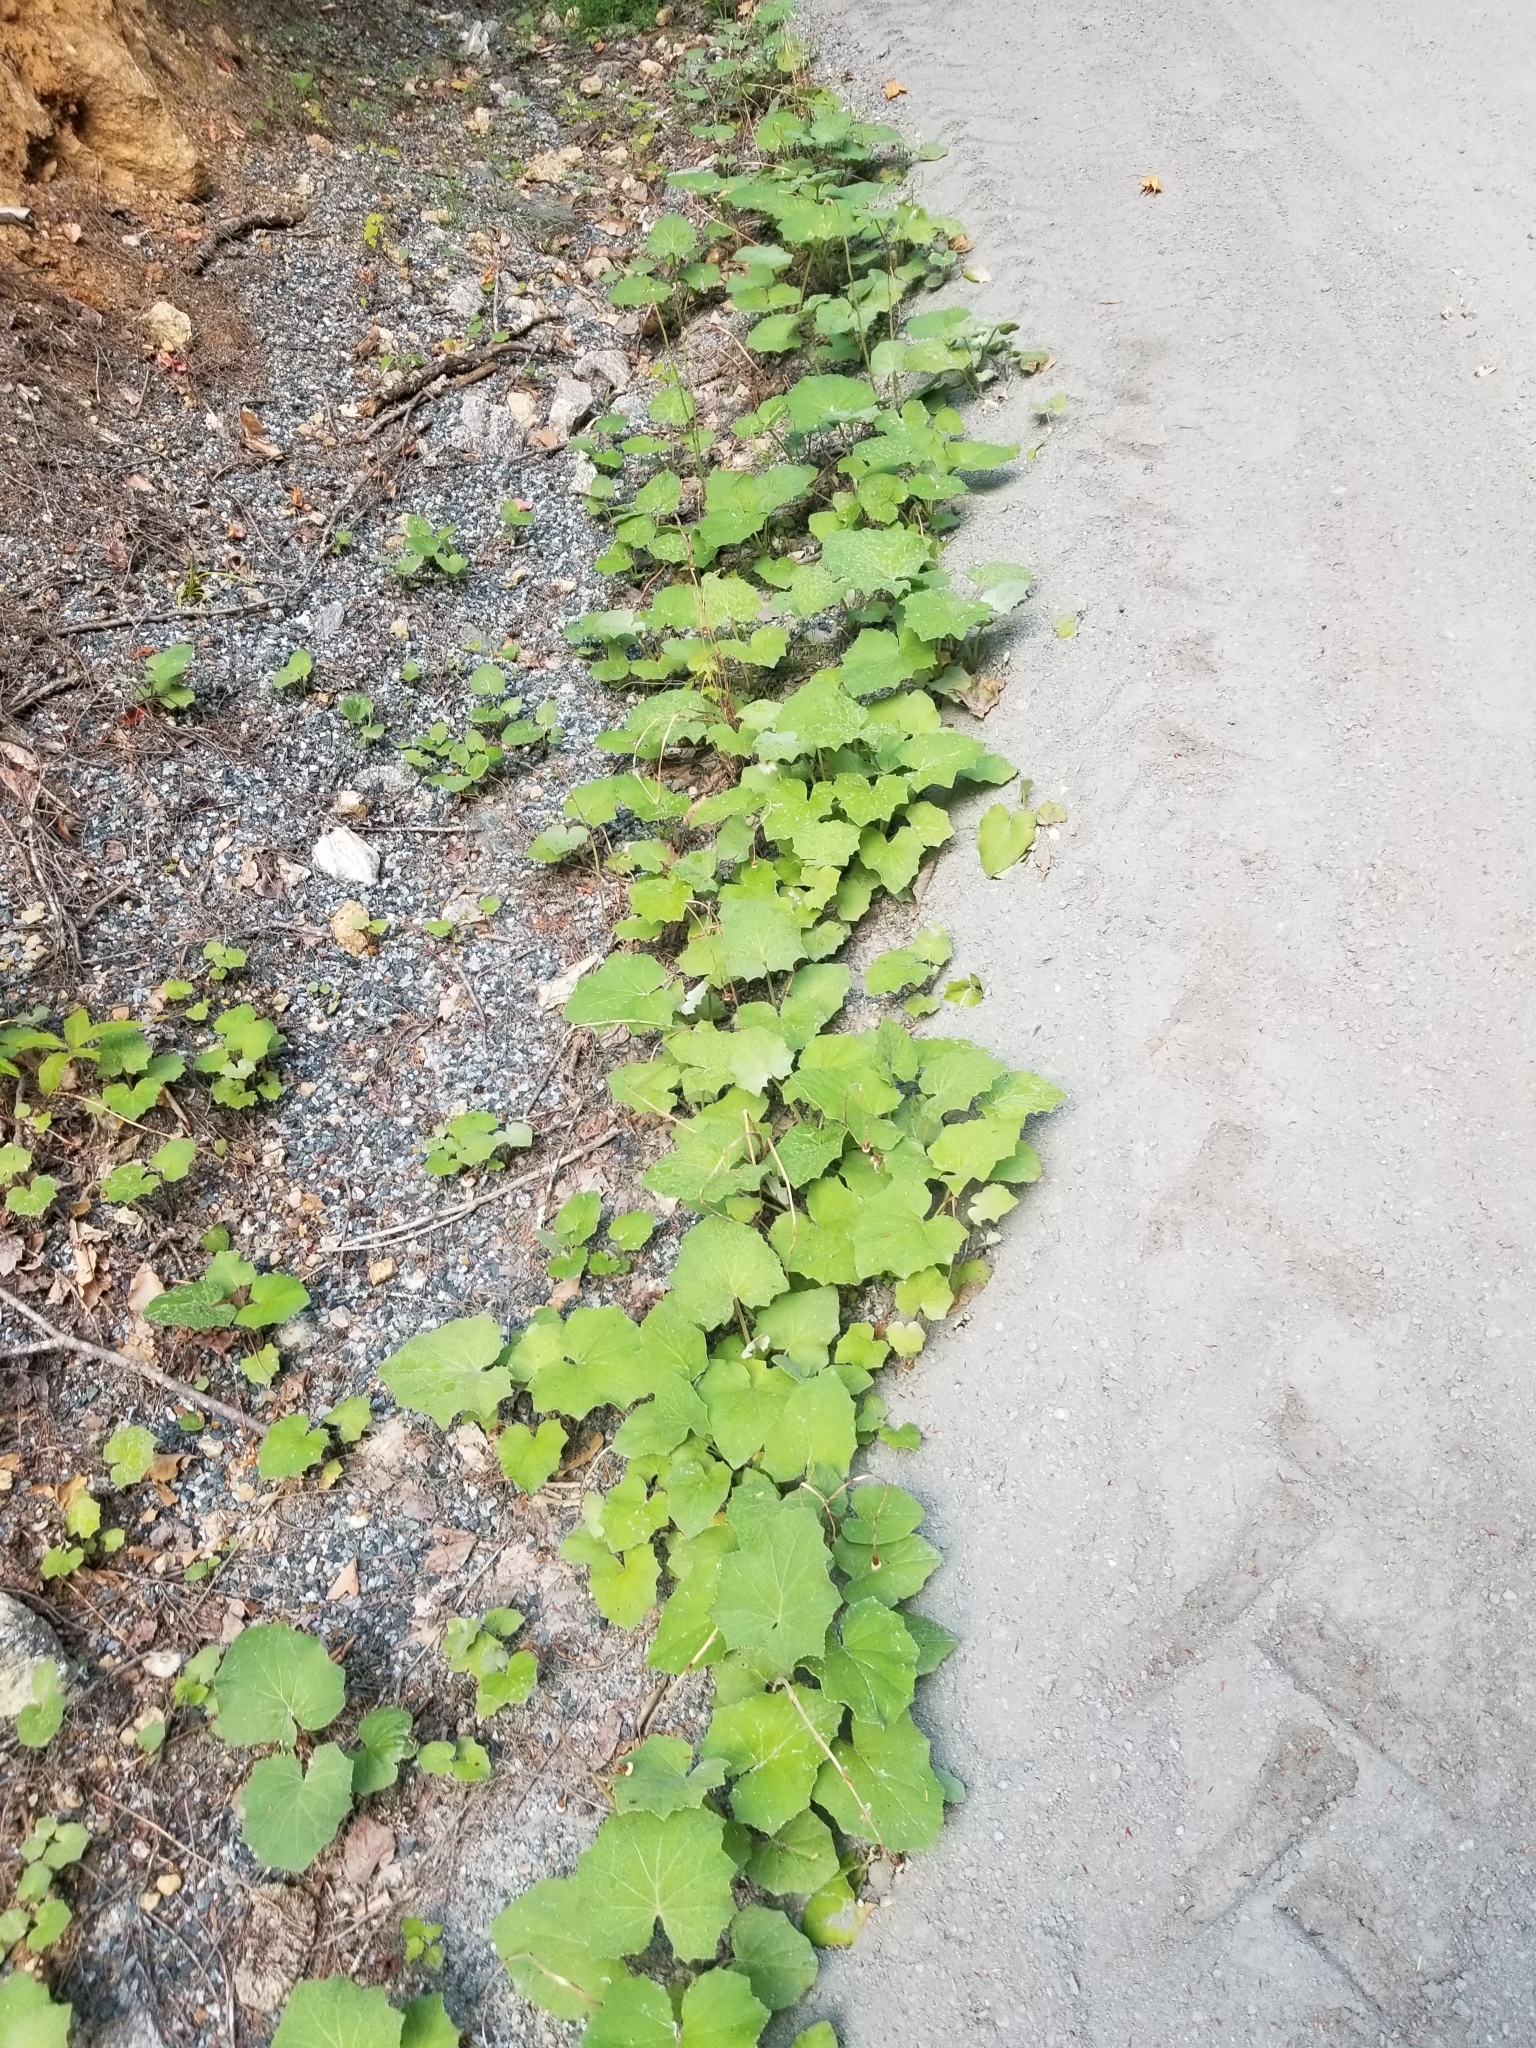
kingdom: Plantae
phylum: Tracheophyta
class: Magnoliopsida
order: Asterales
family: Asteraceae
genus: Tussilago
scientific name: Tussilago farfara
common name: Coltsfoot
